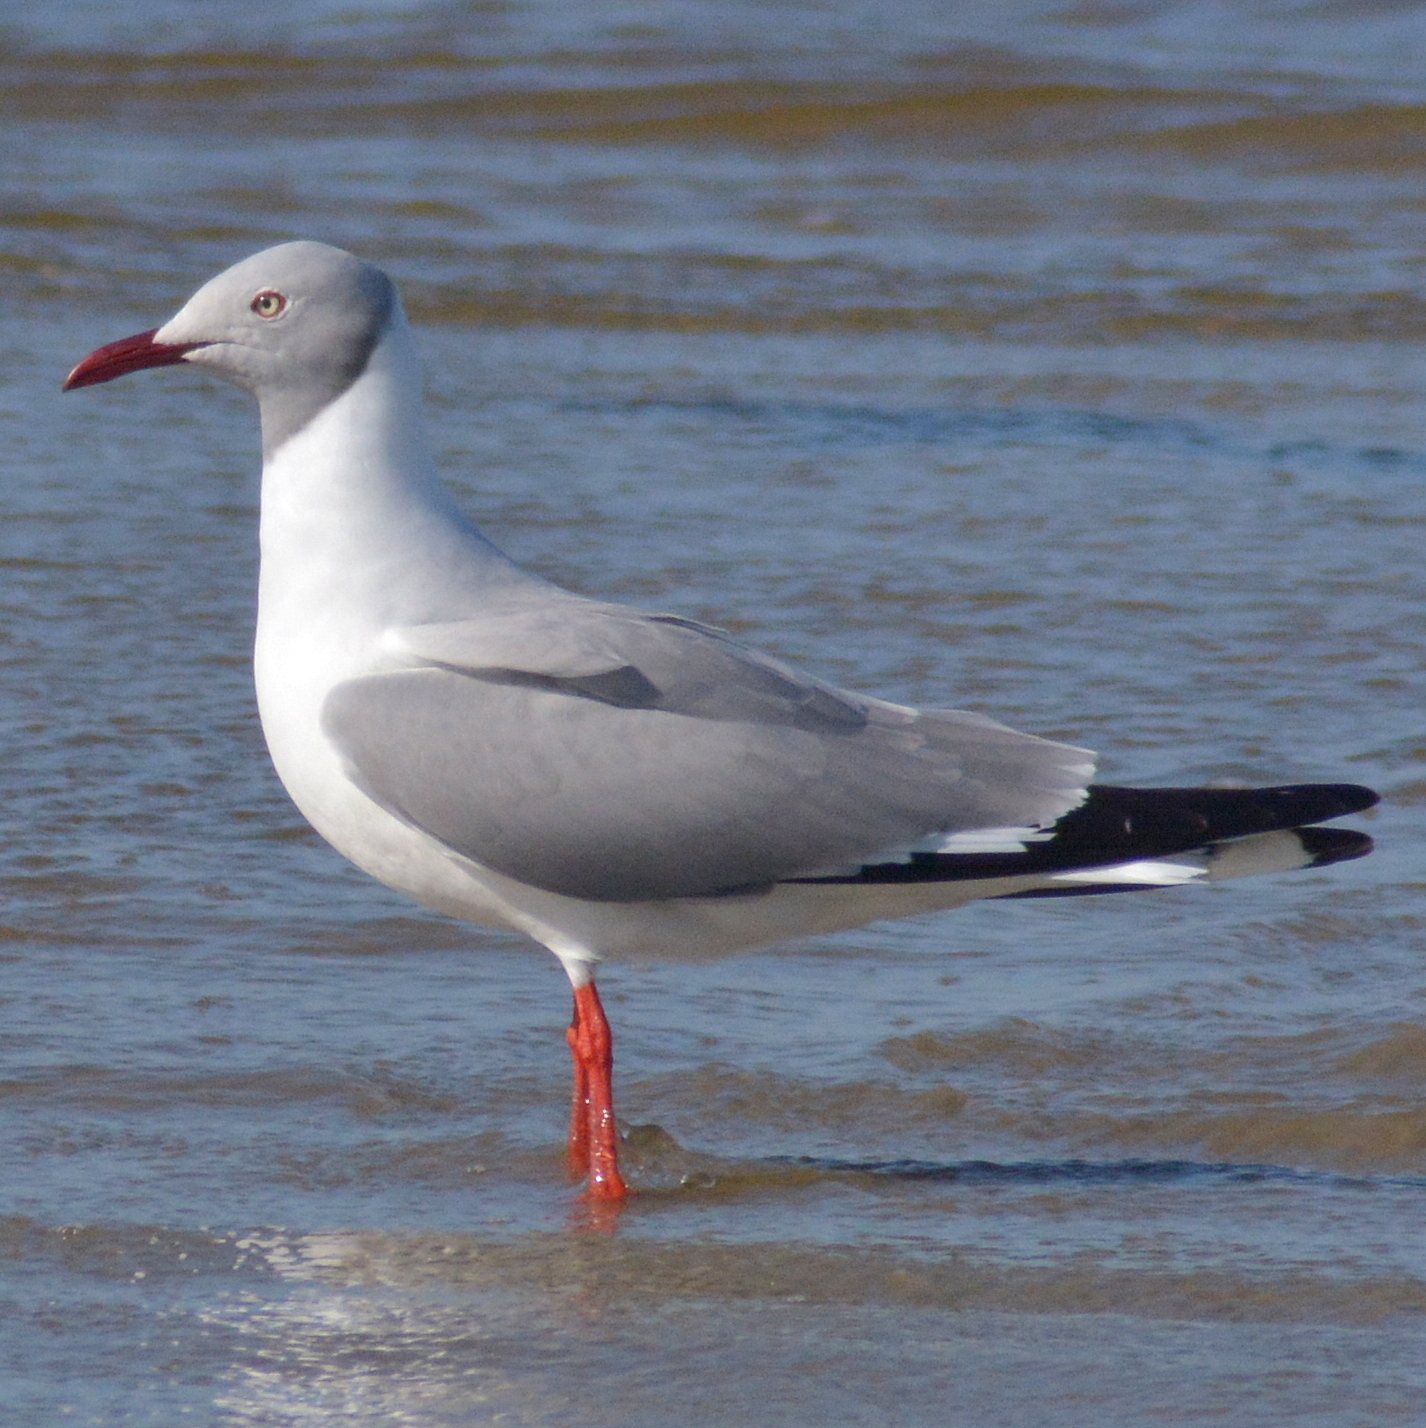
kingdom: Animalia
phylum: Chordata
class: Aves
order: Charadriiformes
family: Laridae
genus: Chroicocephalus
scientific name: Chroicocephalus cirrocephalus
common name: Grey-headed gull
